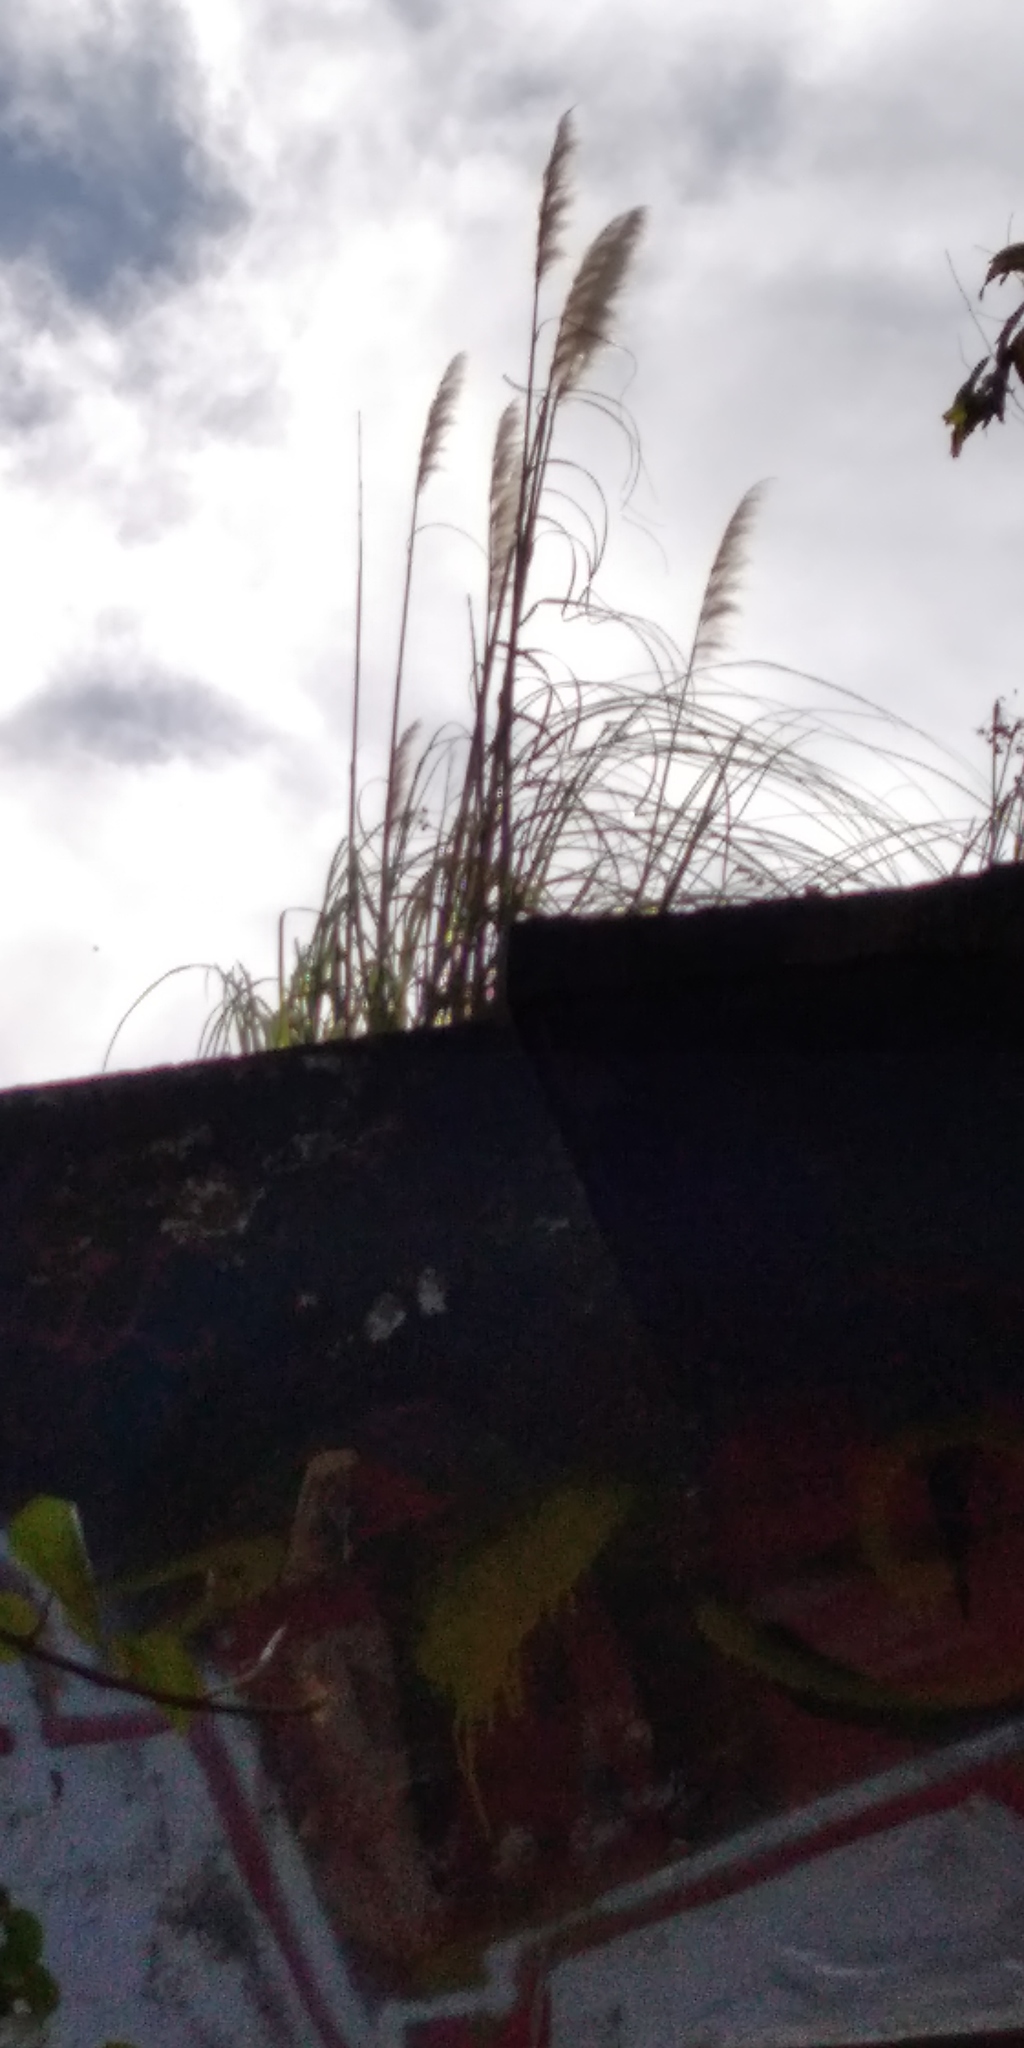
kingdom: Plantae
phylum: Tracheophyta
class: Liliopsida
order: Poales
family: Poaceae
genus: Cortaderia
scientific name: Cortaderia selloana
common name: Uruguayan pampas grass
